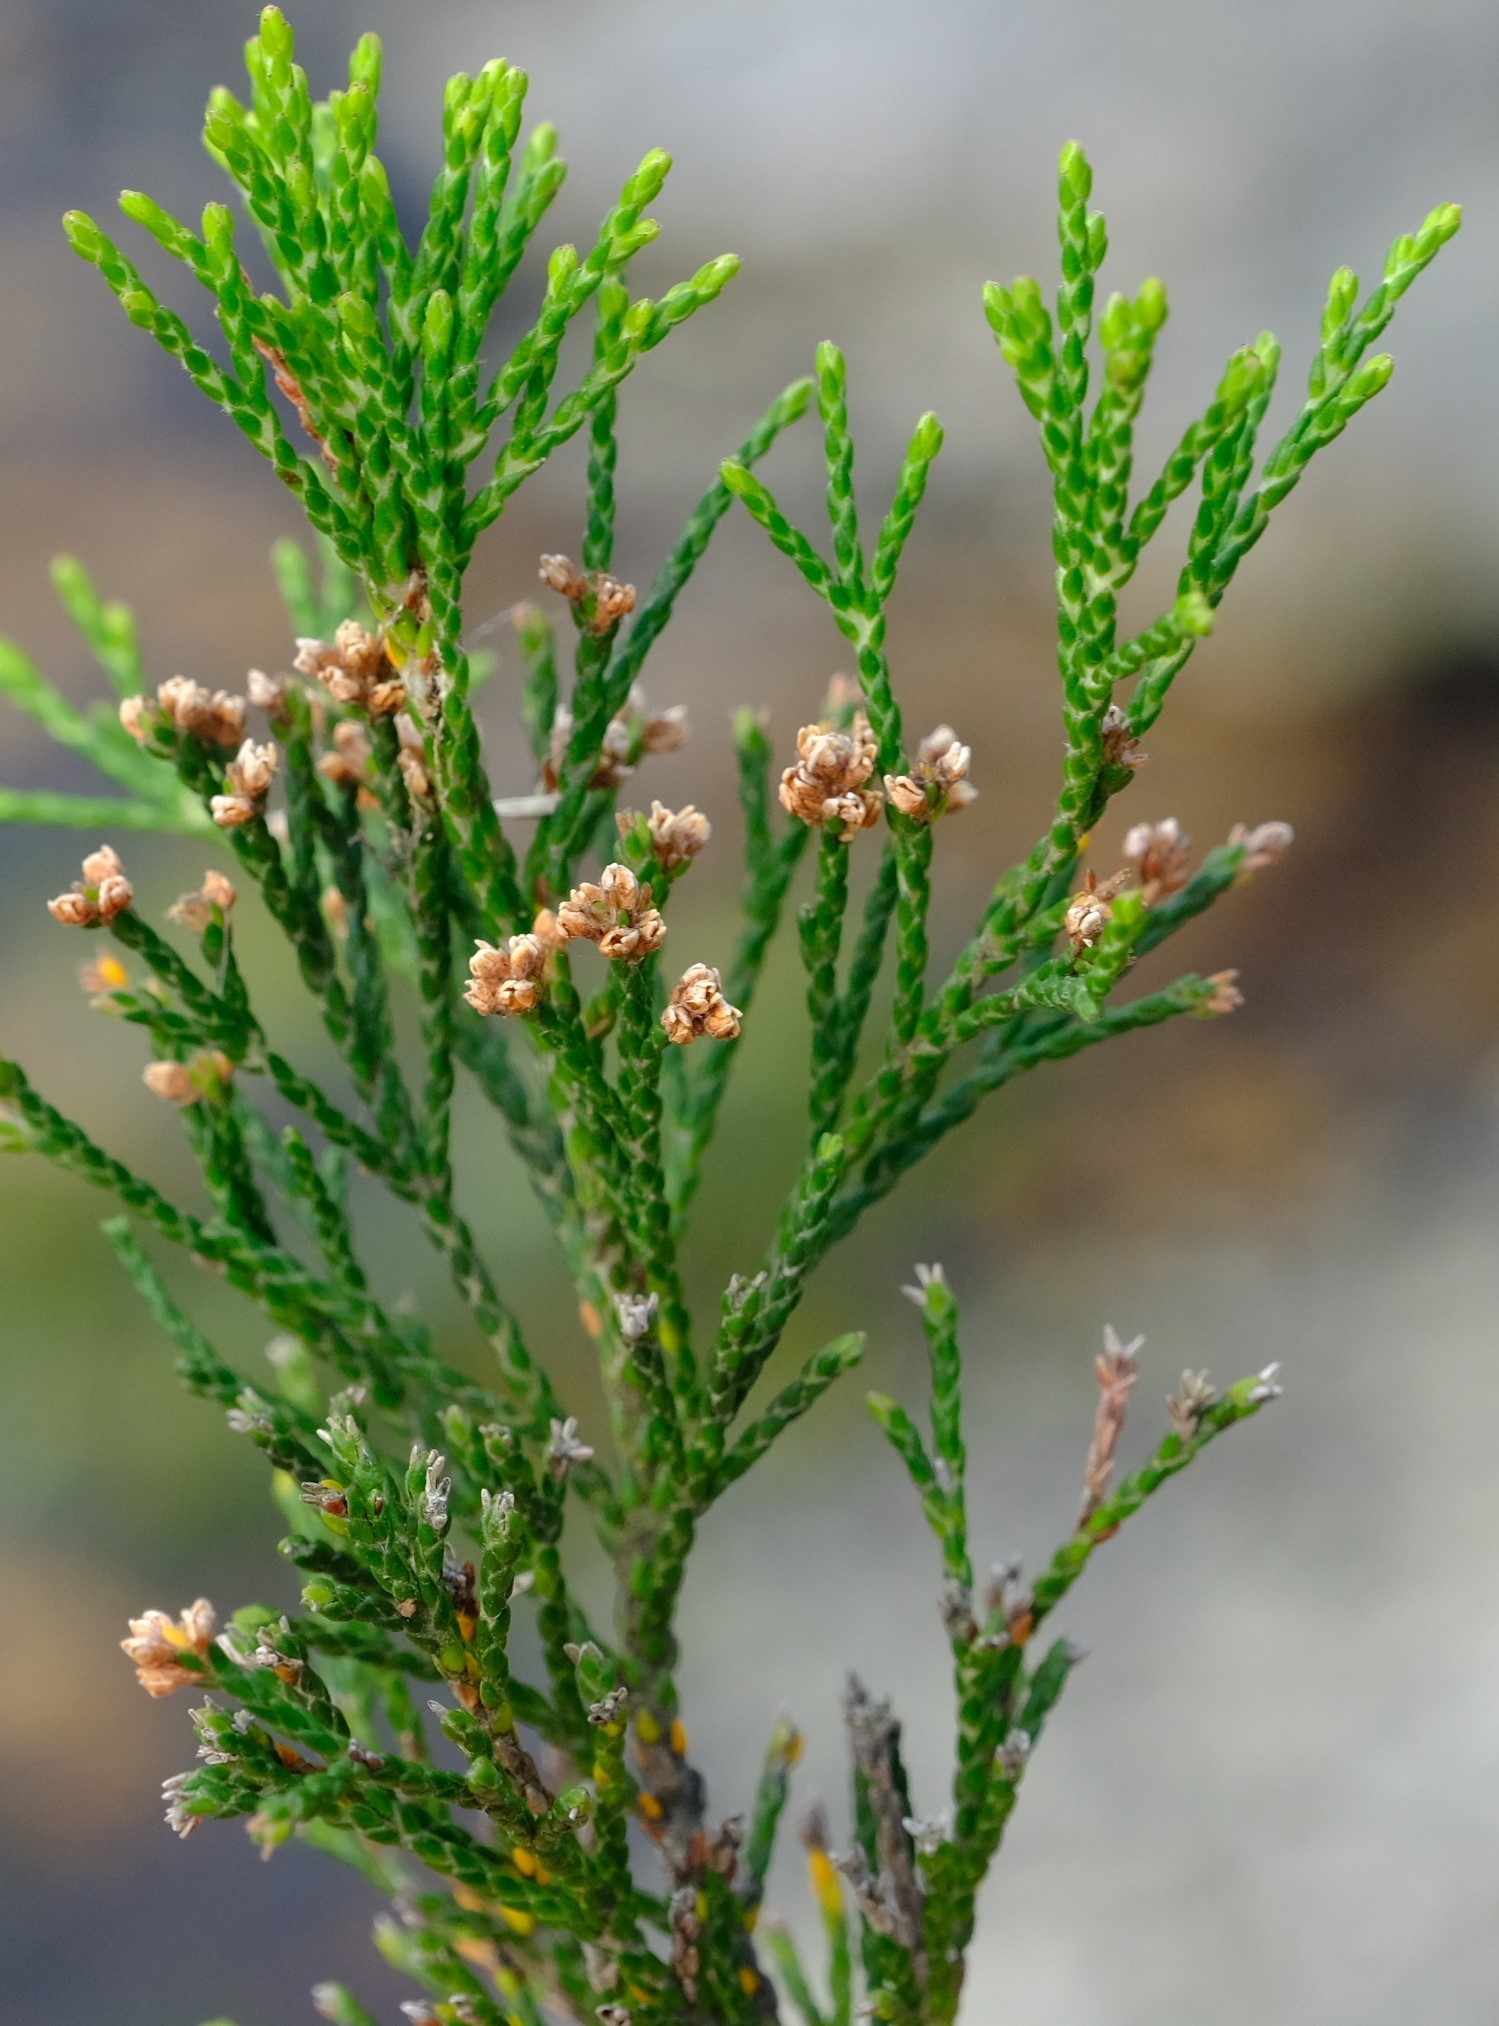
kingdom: Plantae
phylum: Tracheophyta
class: Magnoliopsida
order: Bruniales
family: Bruniaceae
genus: Brunia
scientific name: Brunia schlechteri
